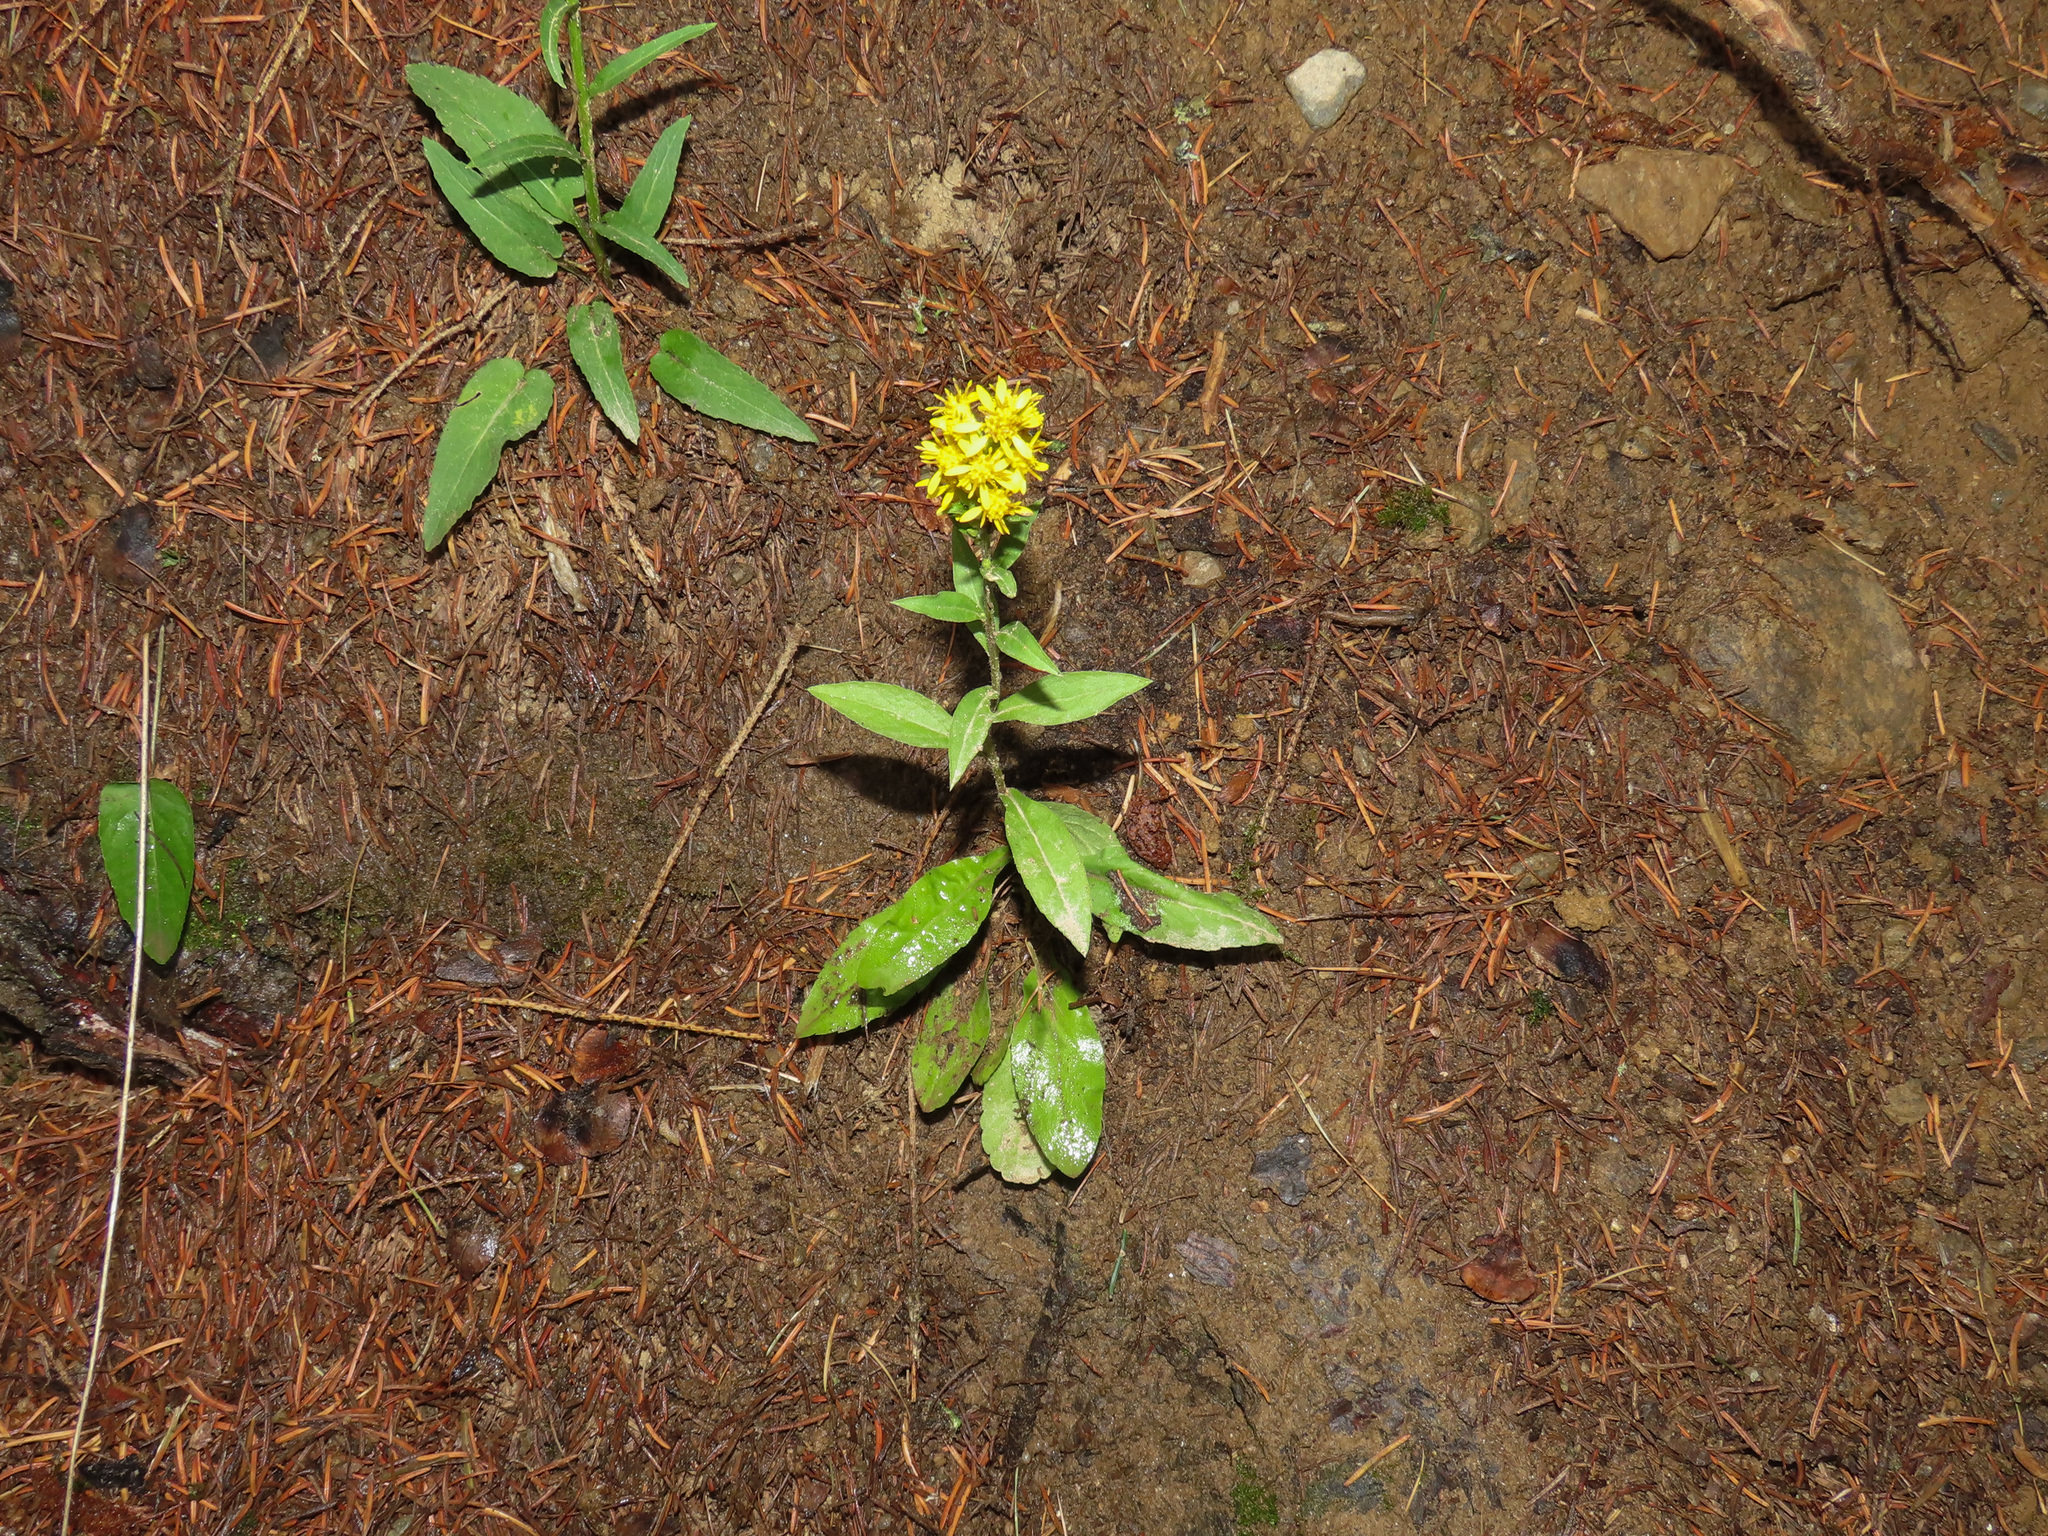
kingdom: Plantae
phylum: Tracheophyta
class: Magnoliopsida
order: Asterales
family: Asteraceae
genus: Solidago
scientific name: Solidago virgaurea
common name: Goldenrod
